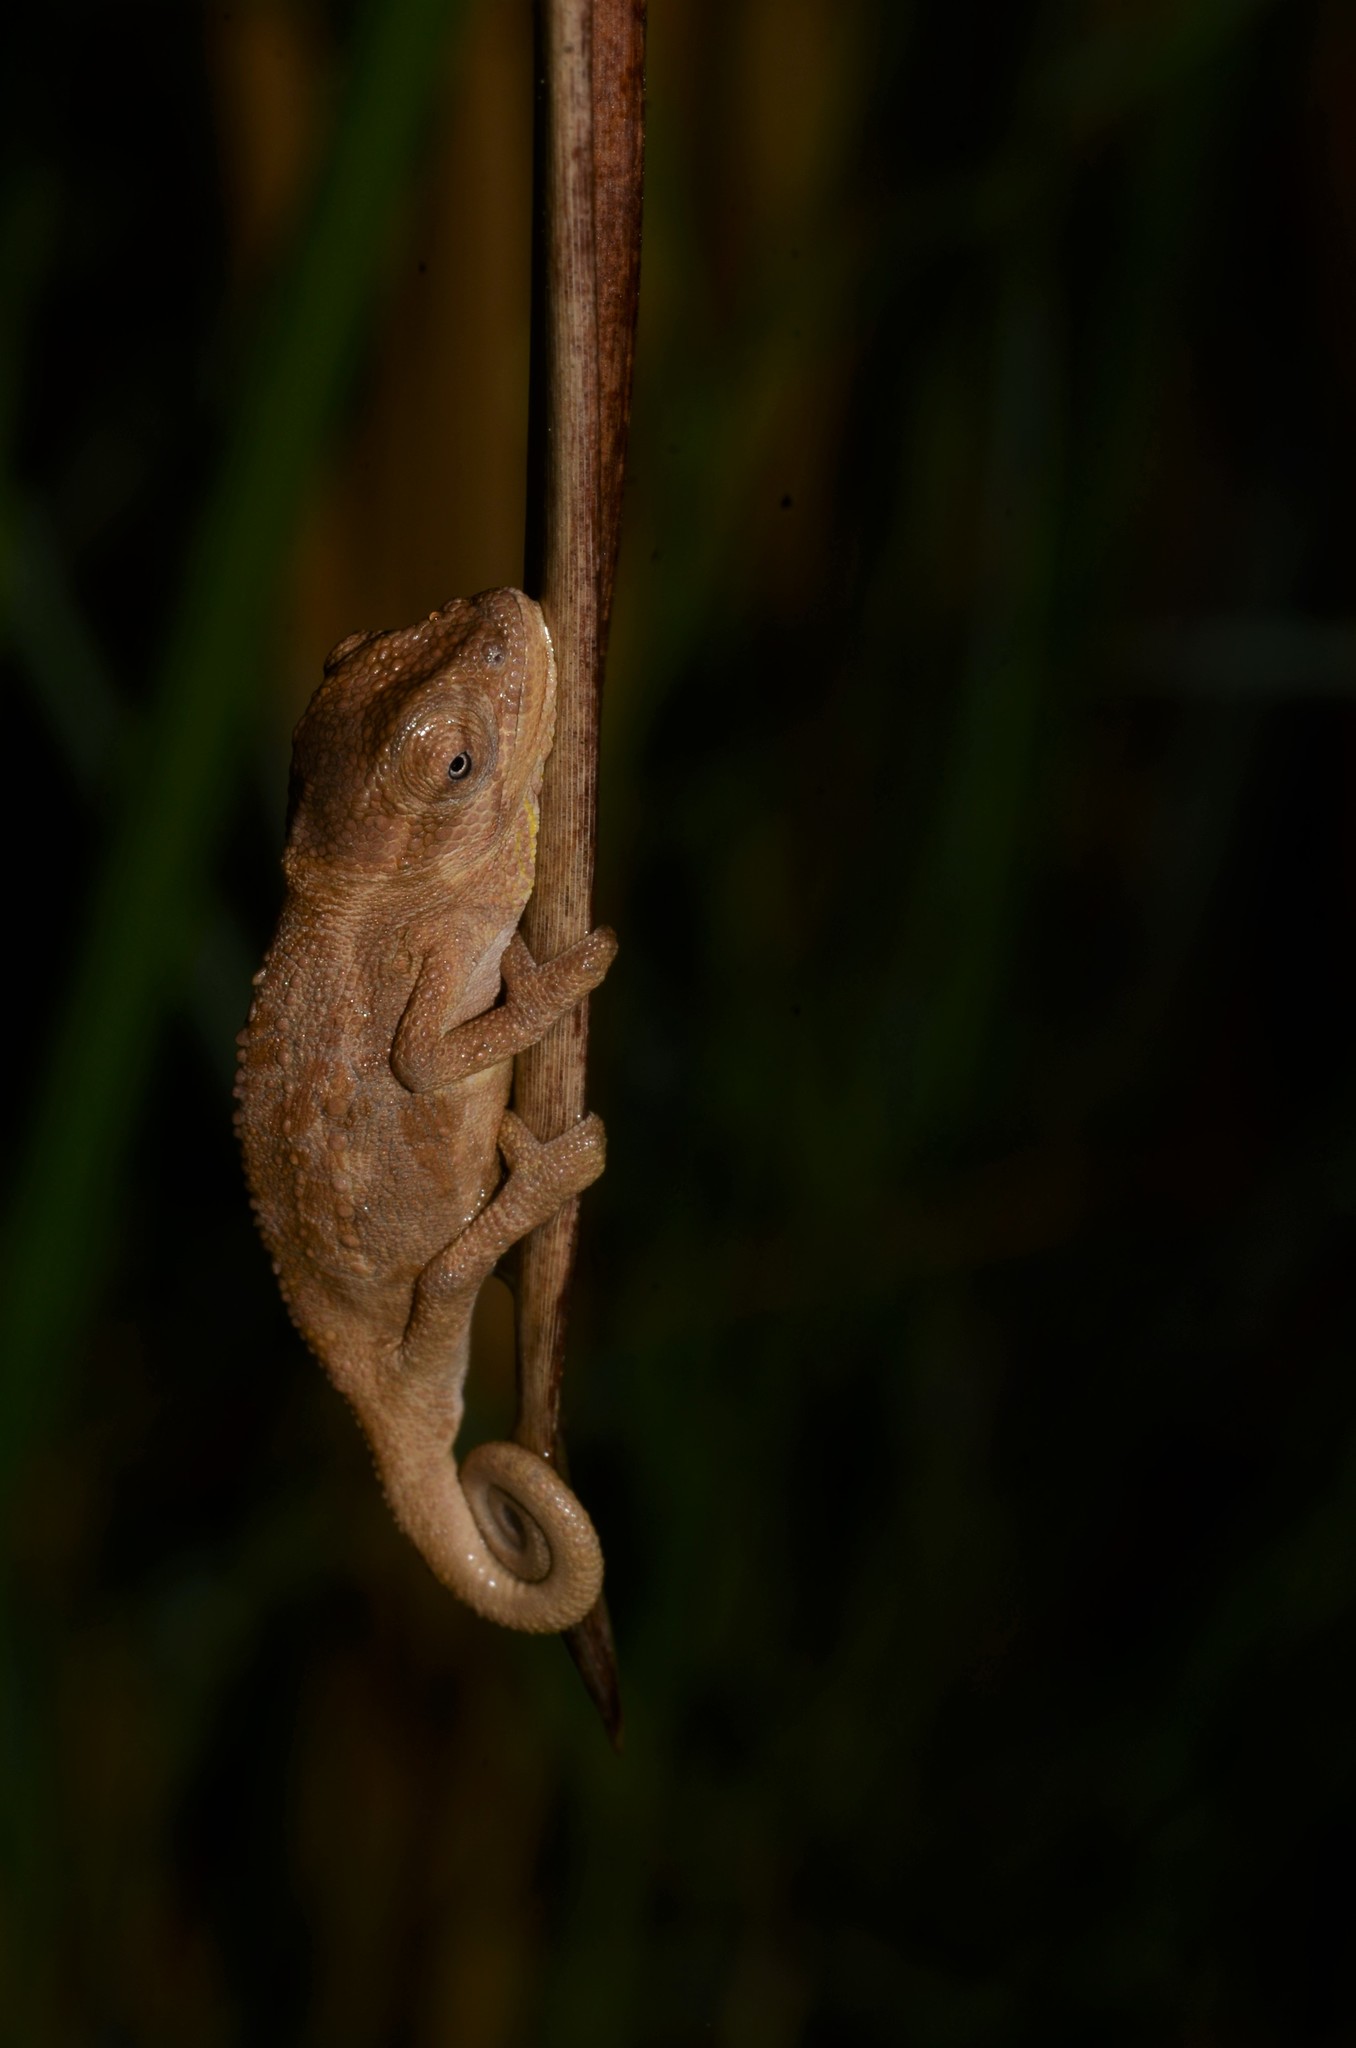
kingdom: Animalia
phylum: Chordata
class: Squamata
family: Chamaeleonidae
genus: Bradypodion
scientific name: Bradypodion pumilum
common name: Cape dwarf chameleon
